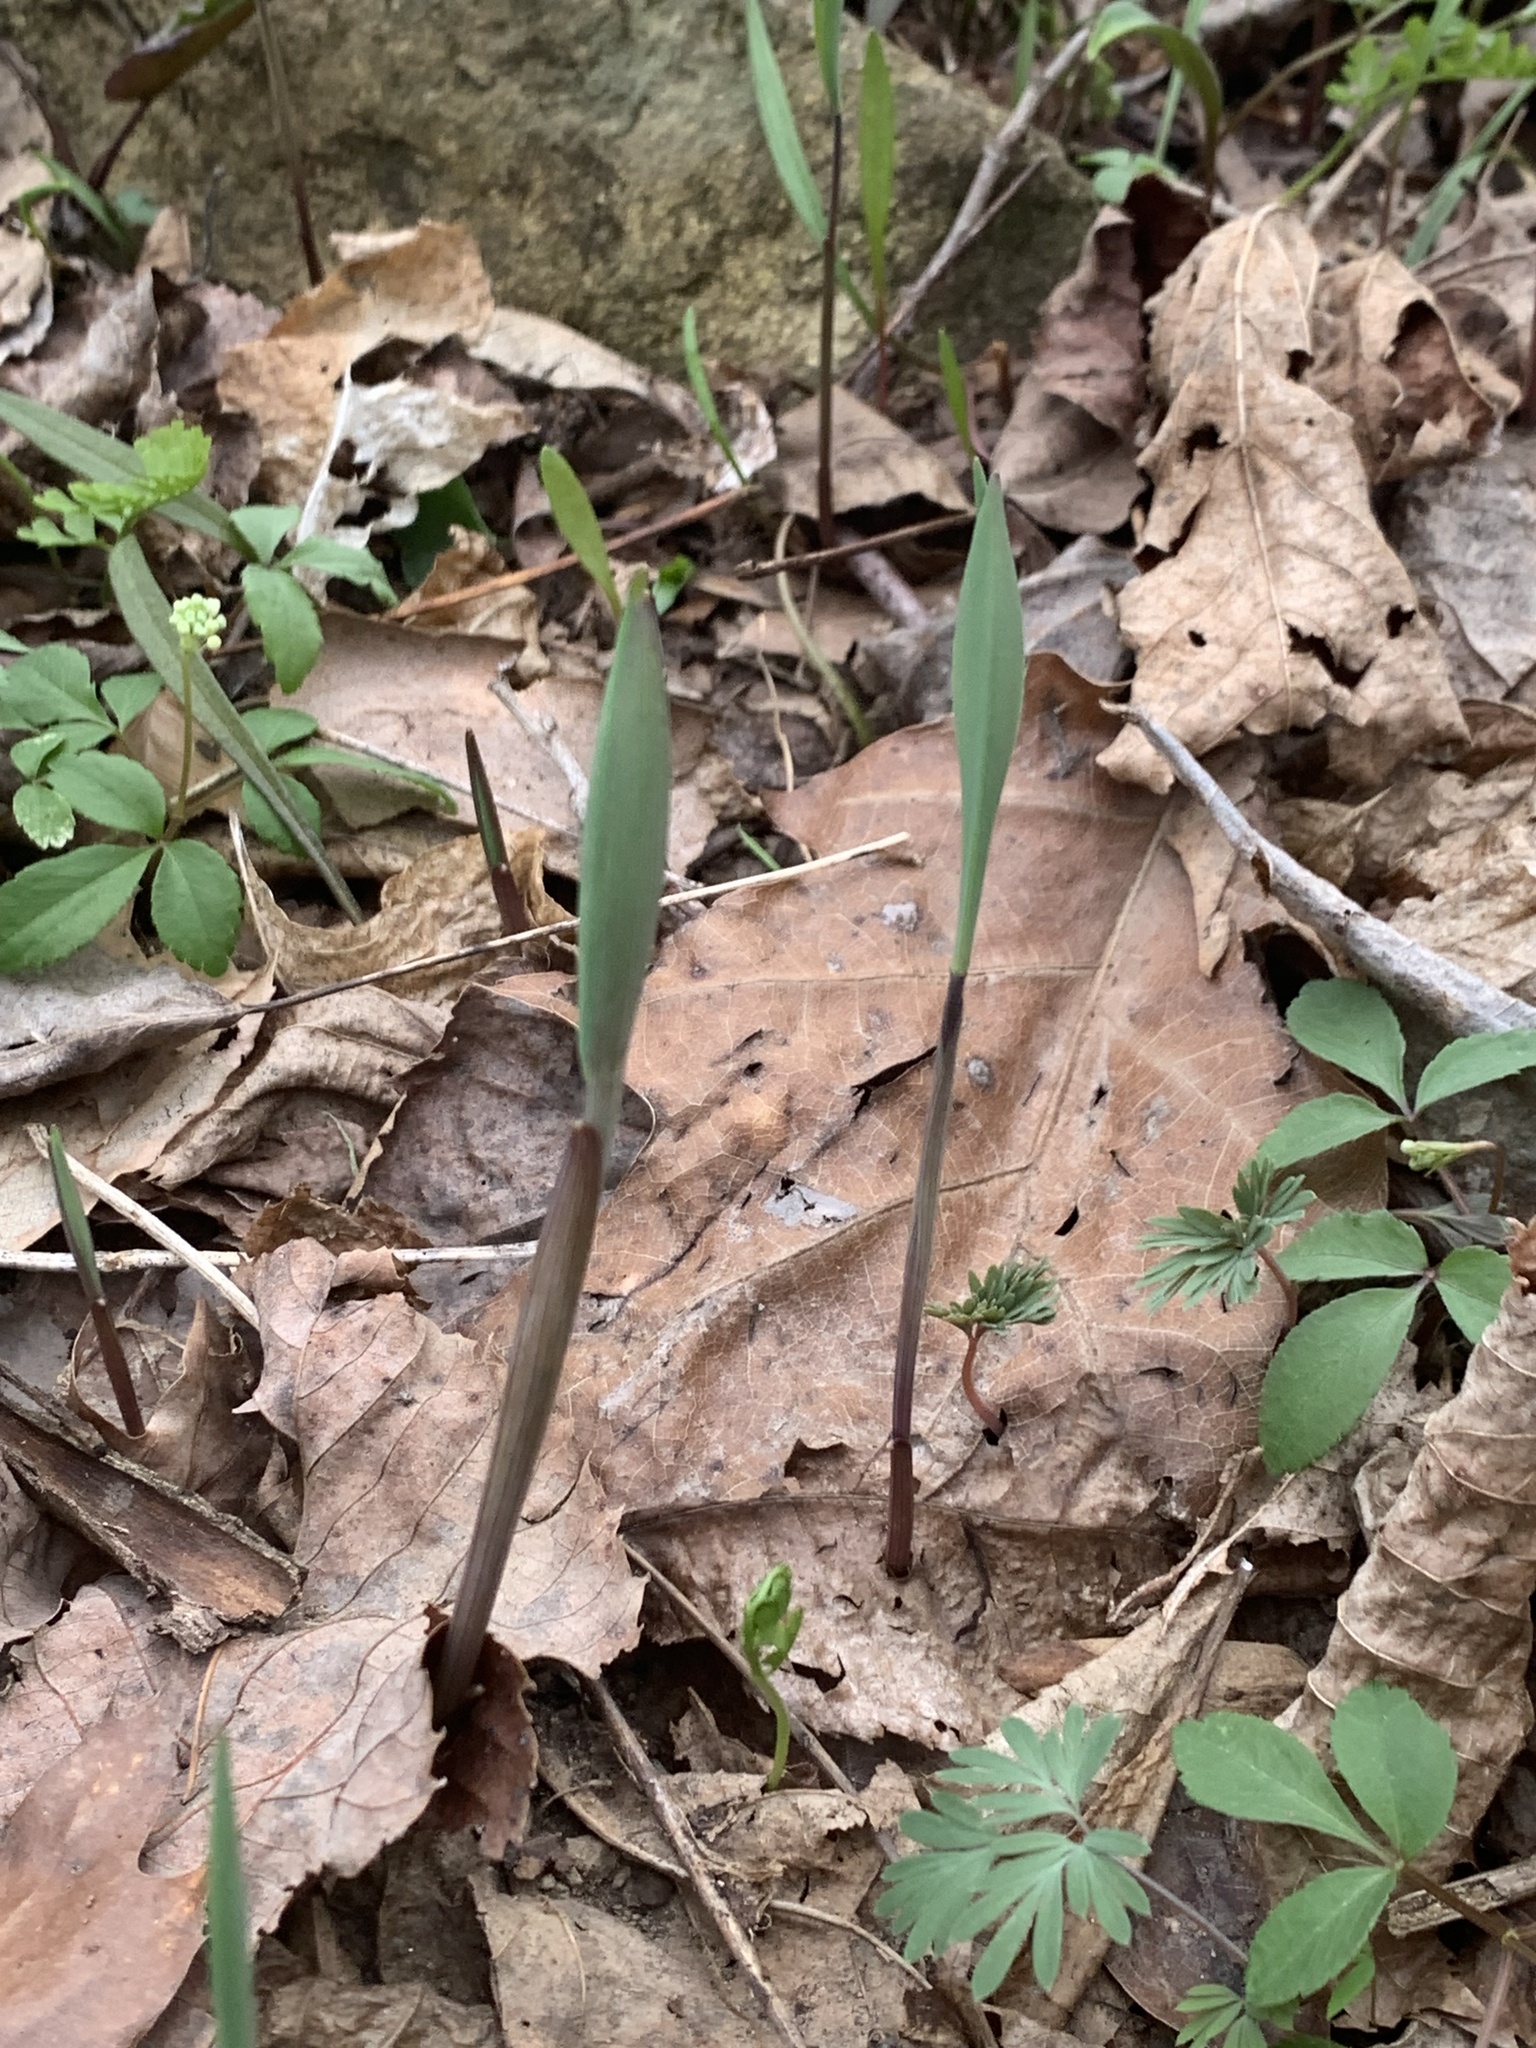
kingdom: Plantae
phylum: Tracheophyta
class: Liliopsida
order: Liliales
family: Colchicaceae
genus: Uvularia
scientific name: Uvularia sessilifolia
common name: Straw-lily
